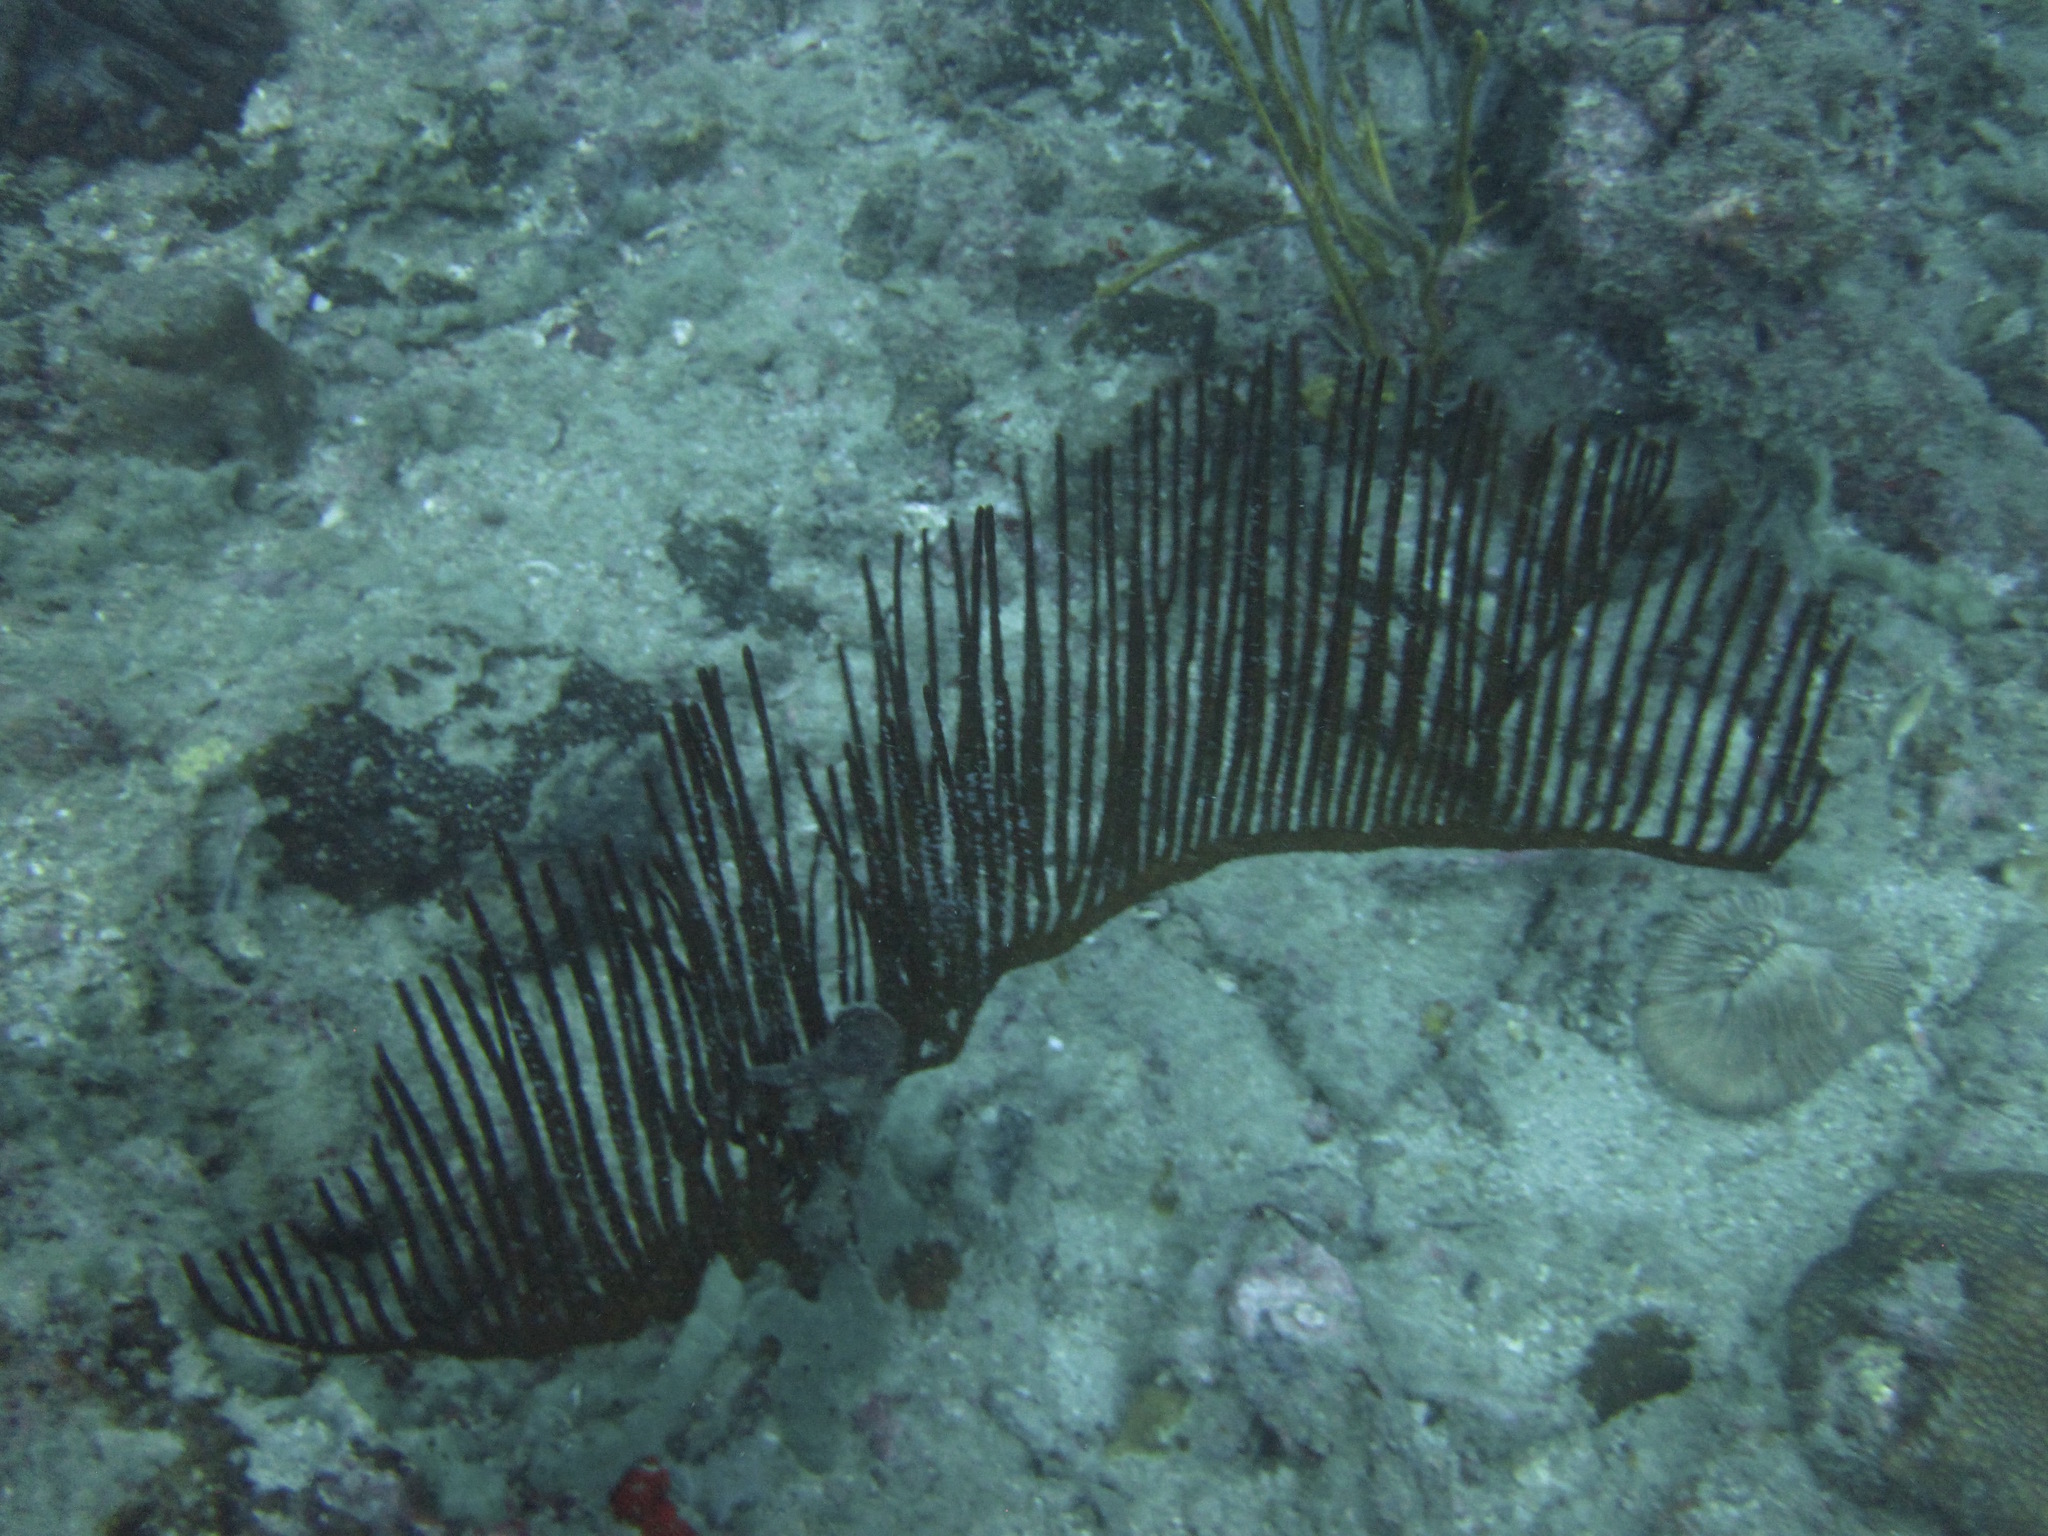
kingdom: Animalia
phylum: Cnidaria
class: Anthozoa
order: Scleralcyonacea
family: Ellisellidae
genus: Ctenocella
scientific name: Ctenocella pectinata
